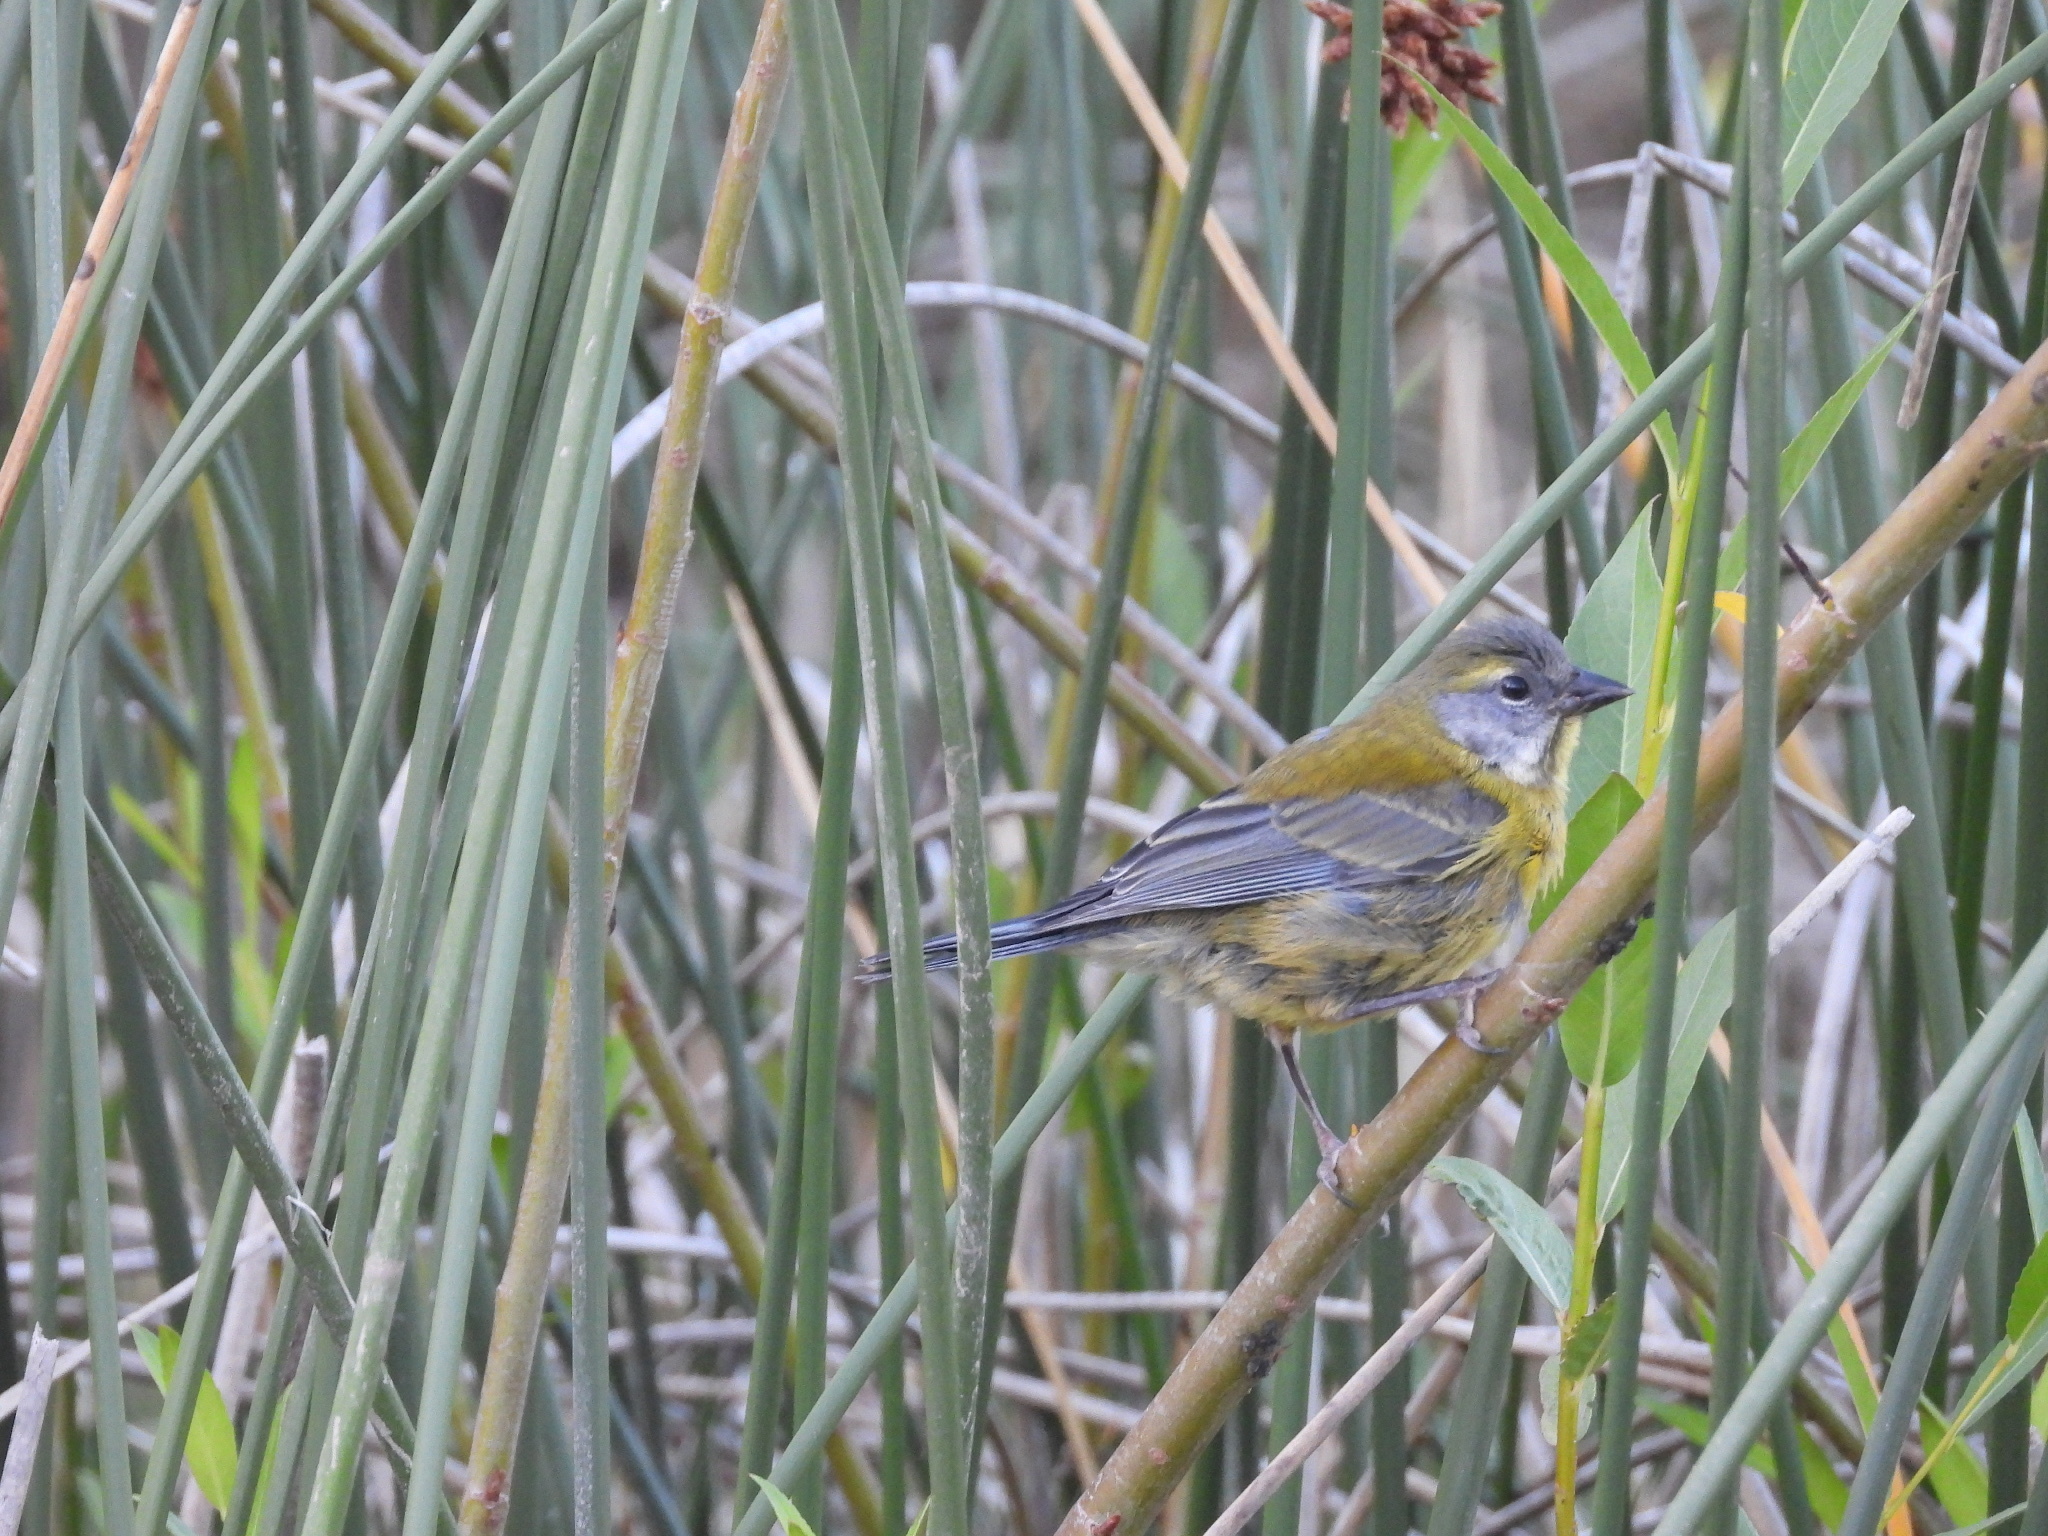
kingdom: Animalia
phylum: Chordata
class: Aves
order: Passeriformes
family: Thraupidae
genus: Phrygilus
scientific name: Phrygilus gayi
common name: Grey-hooded sierra finch
